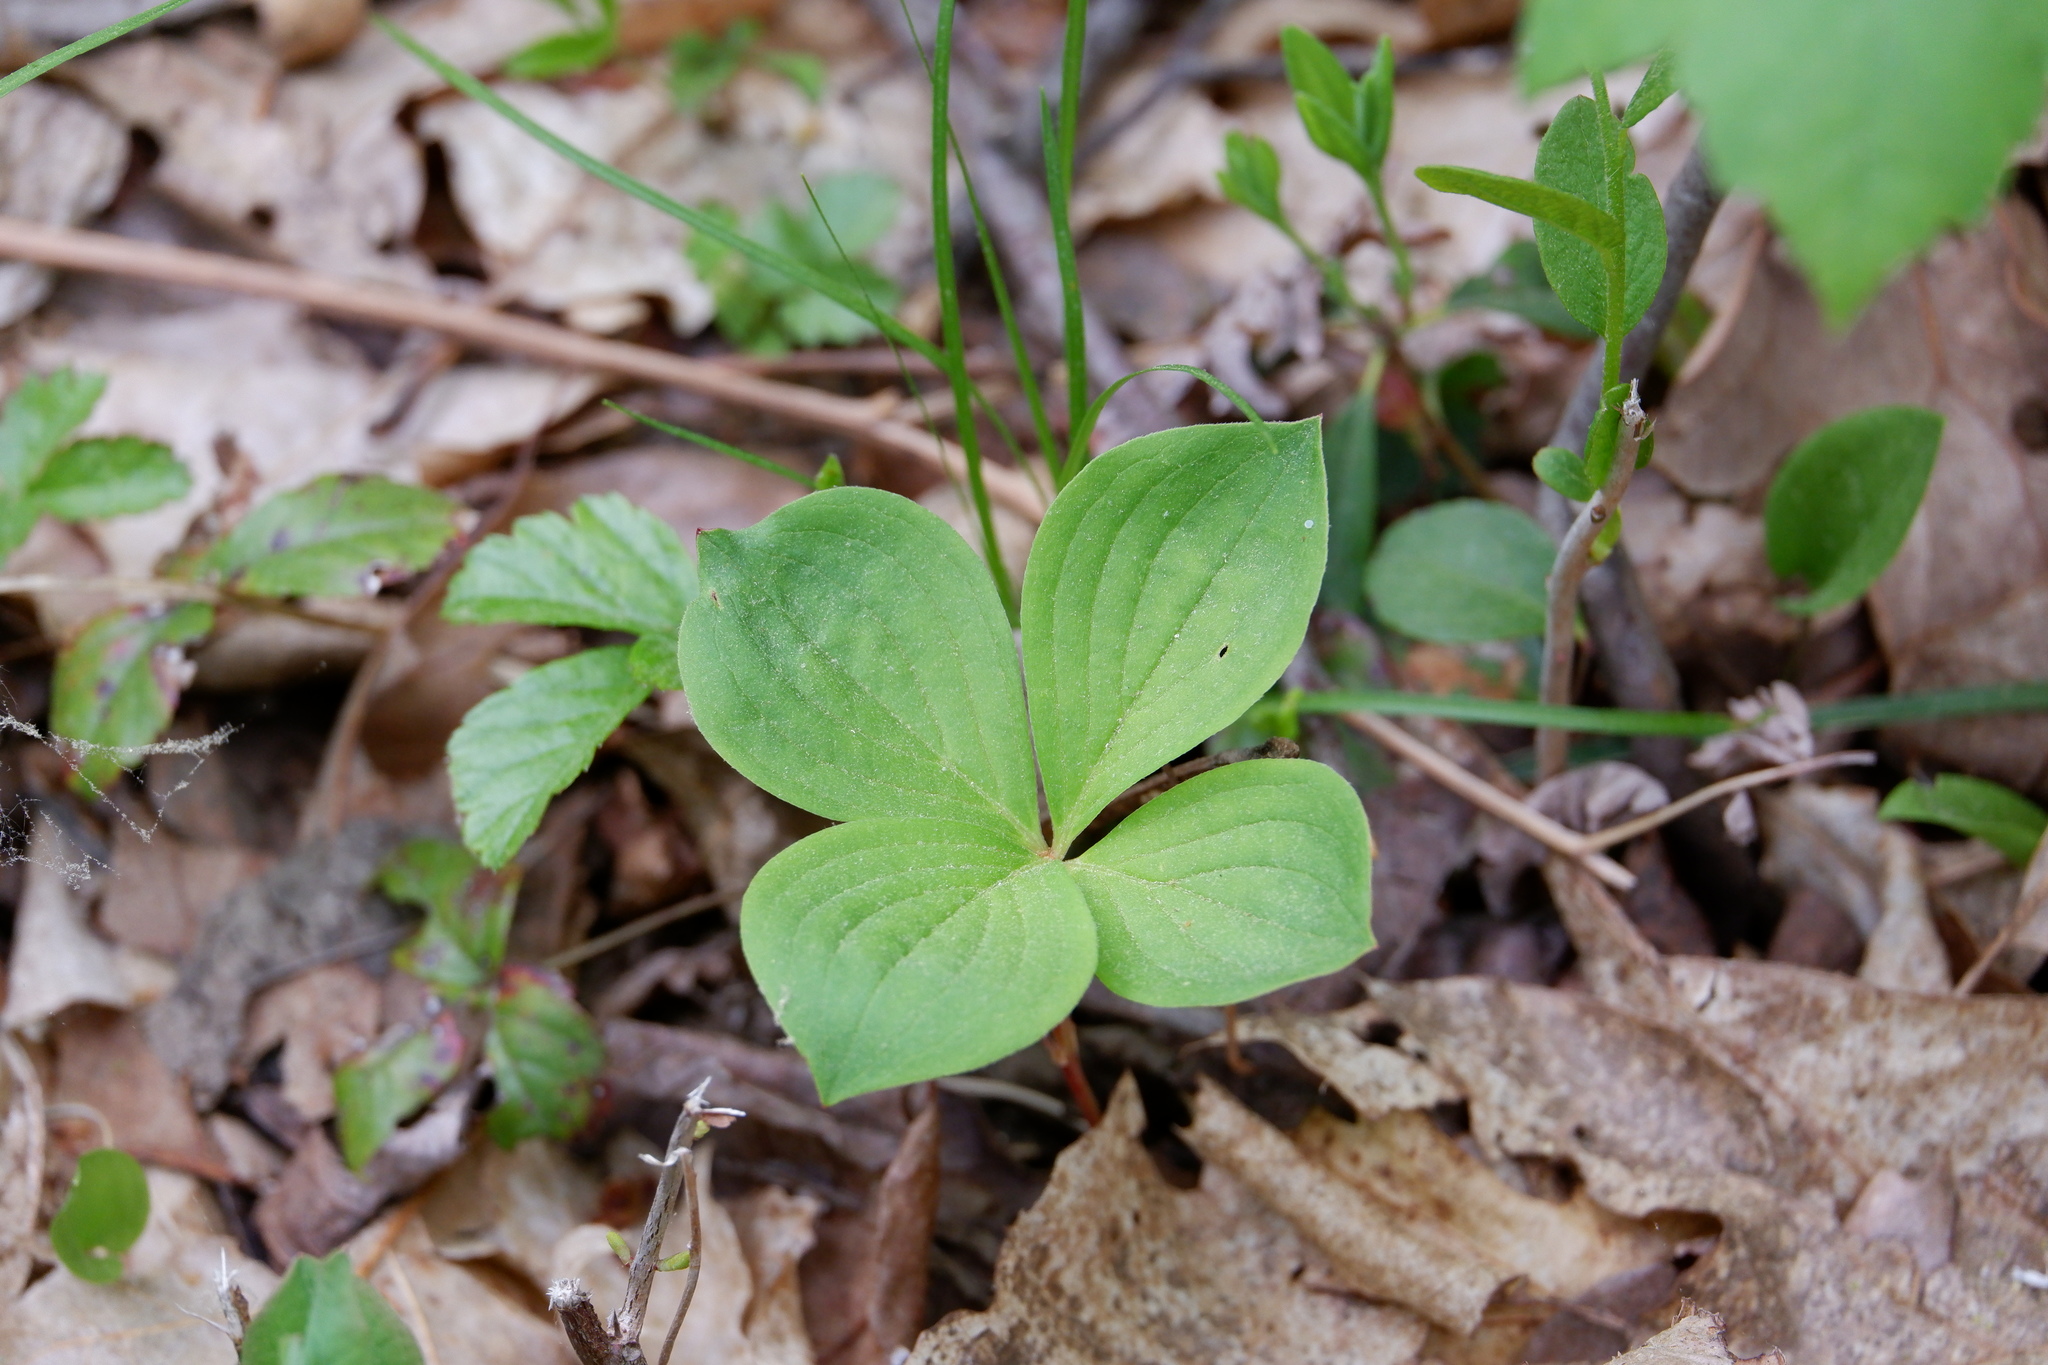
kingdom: Plantae
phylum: Tracheophyta
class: Magnoliopsida
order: Cornales
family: Cornaceae
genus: Cornus
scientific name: Cornus canadensis
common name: Creeping dogwood
